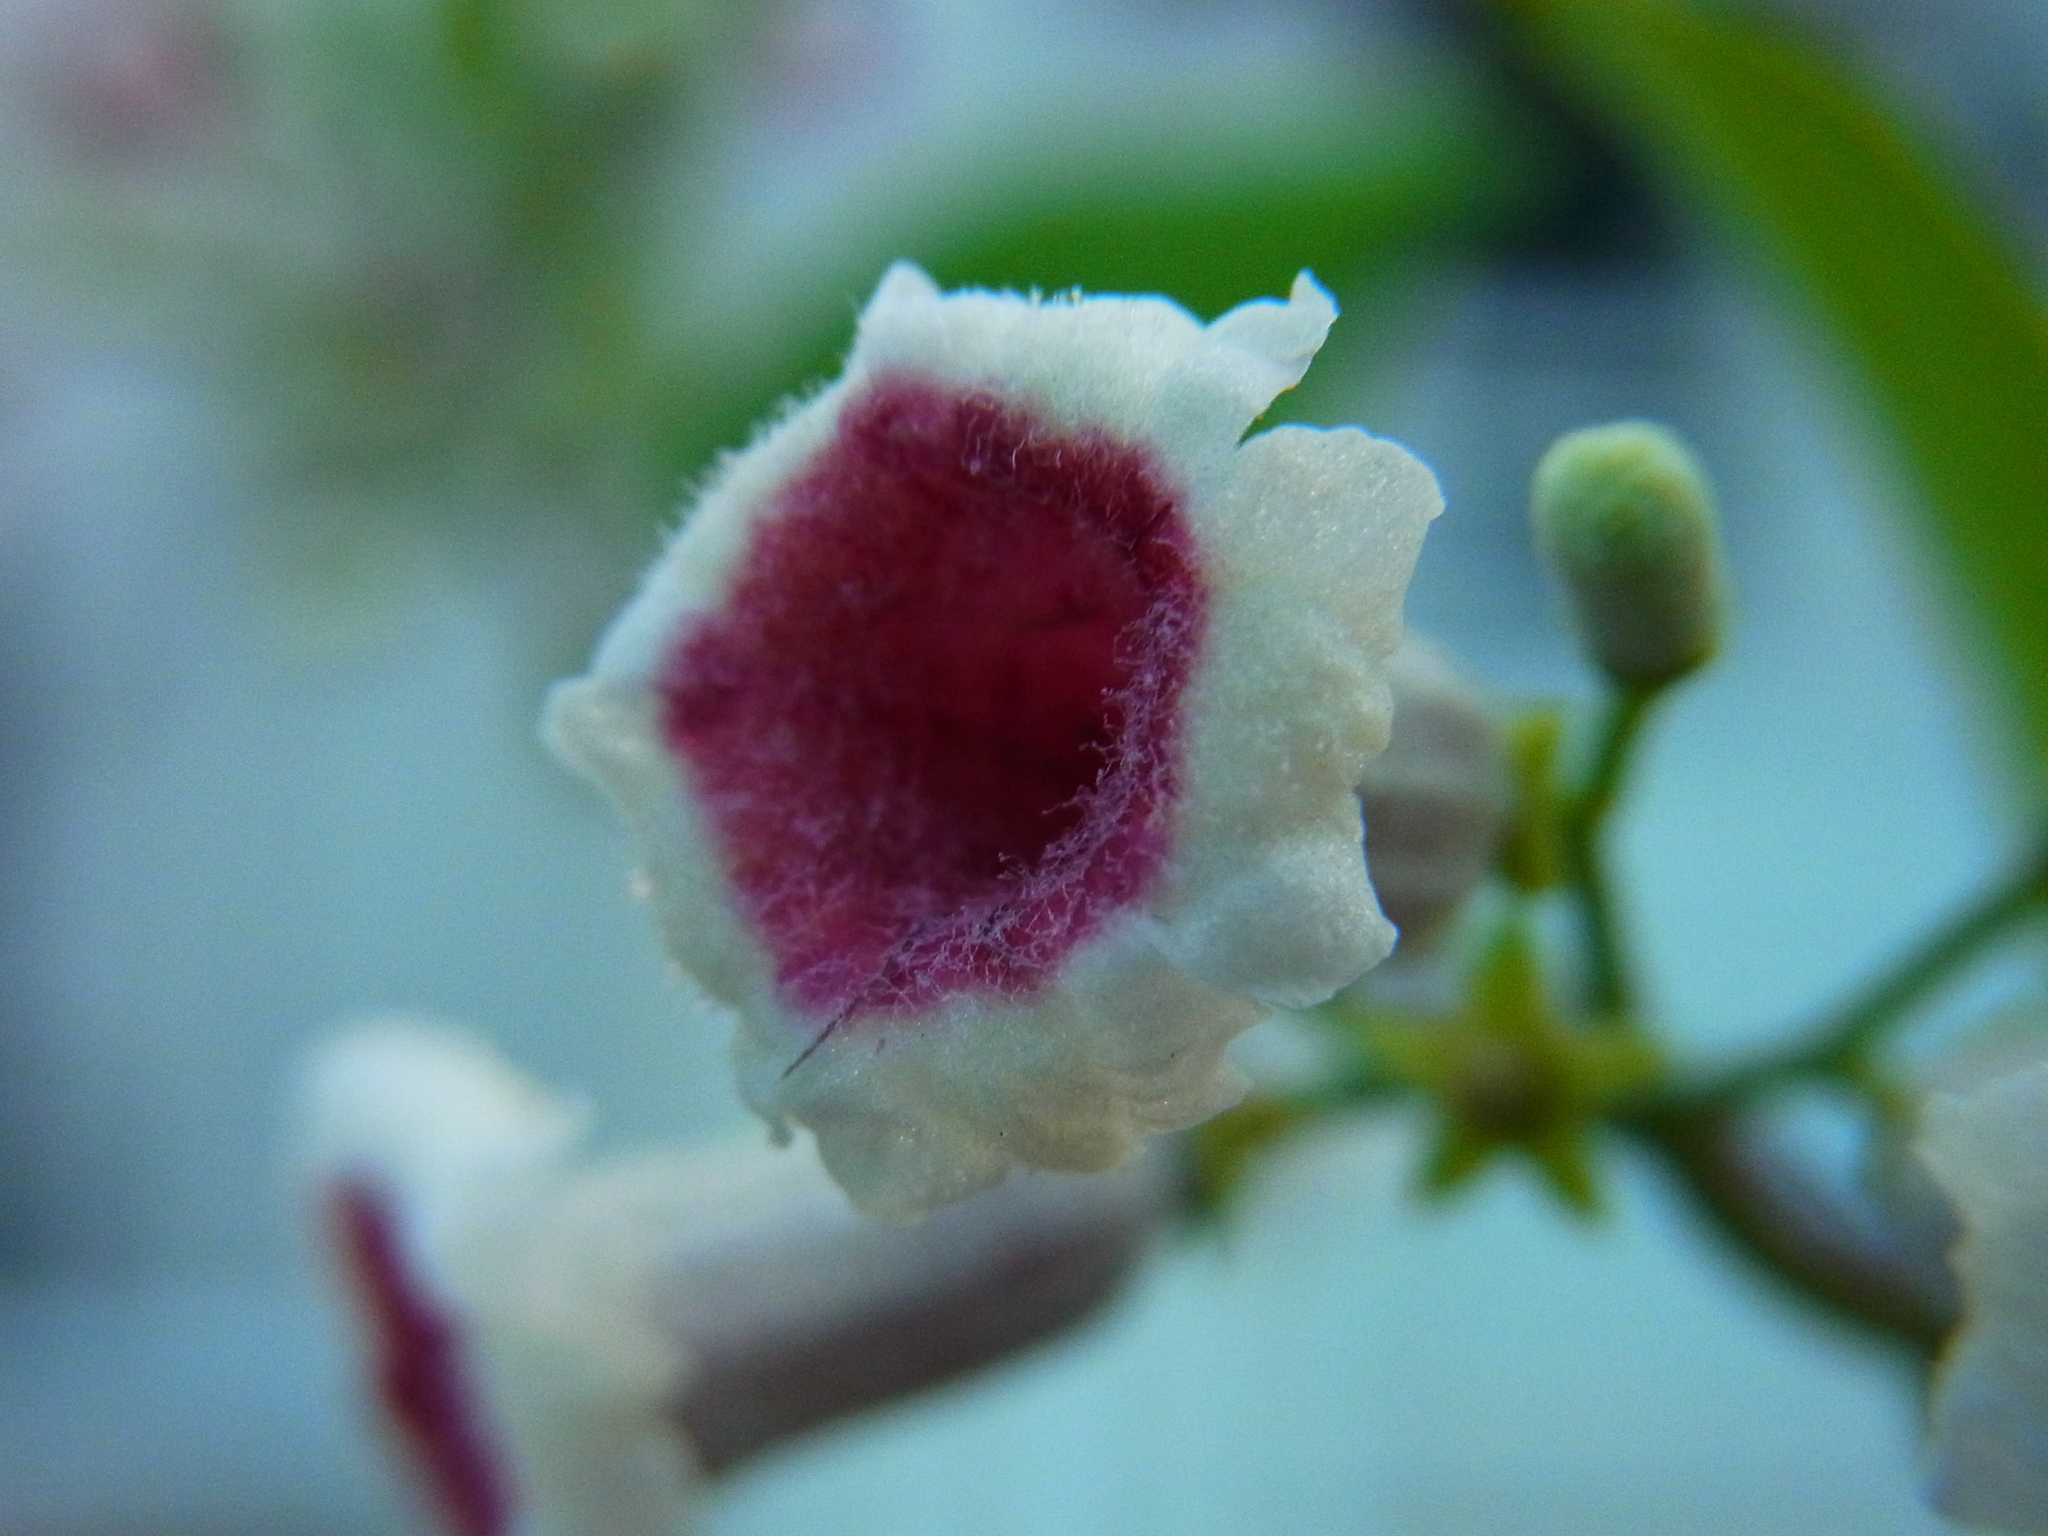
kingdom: Plantae
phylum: Tracheophyta
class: Magnoliopsida
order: Gentianales
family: Rubiaceae
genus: Paederia
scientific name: Paederia foetida
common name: Stinkvine
